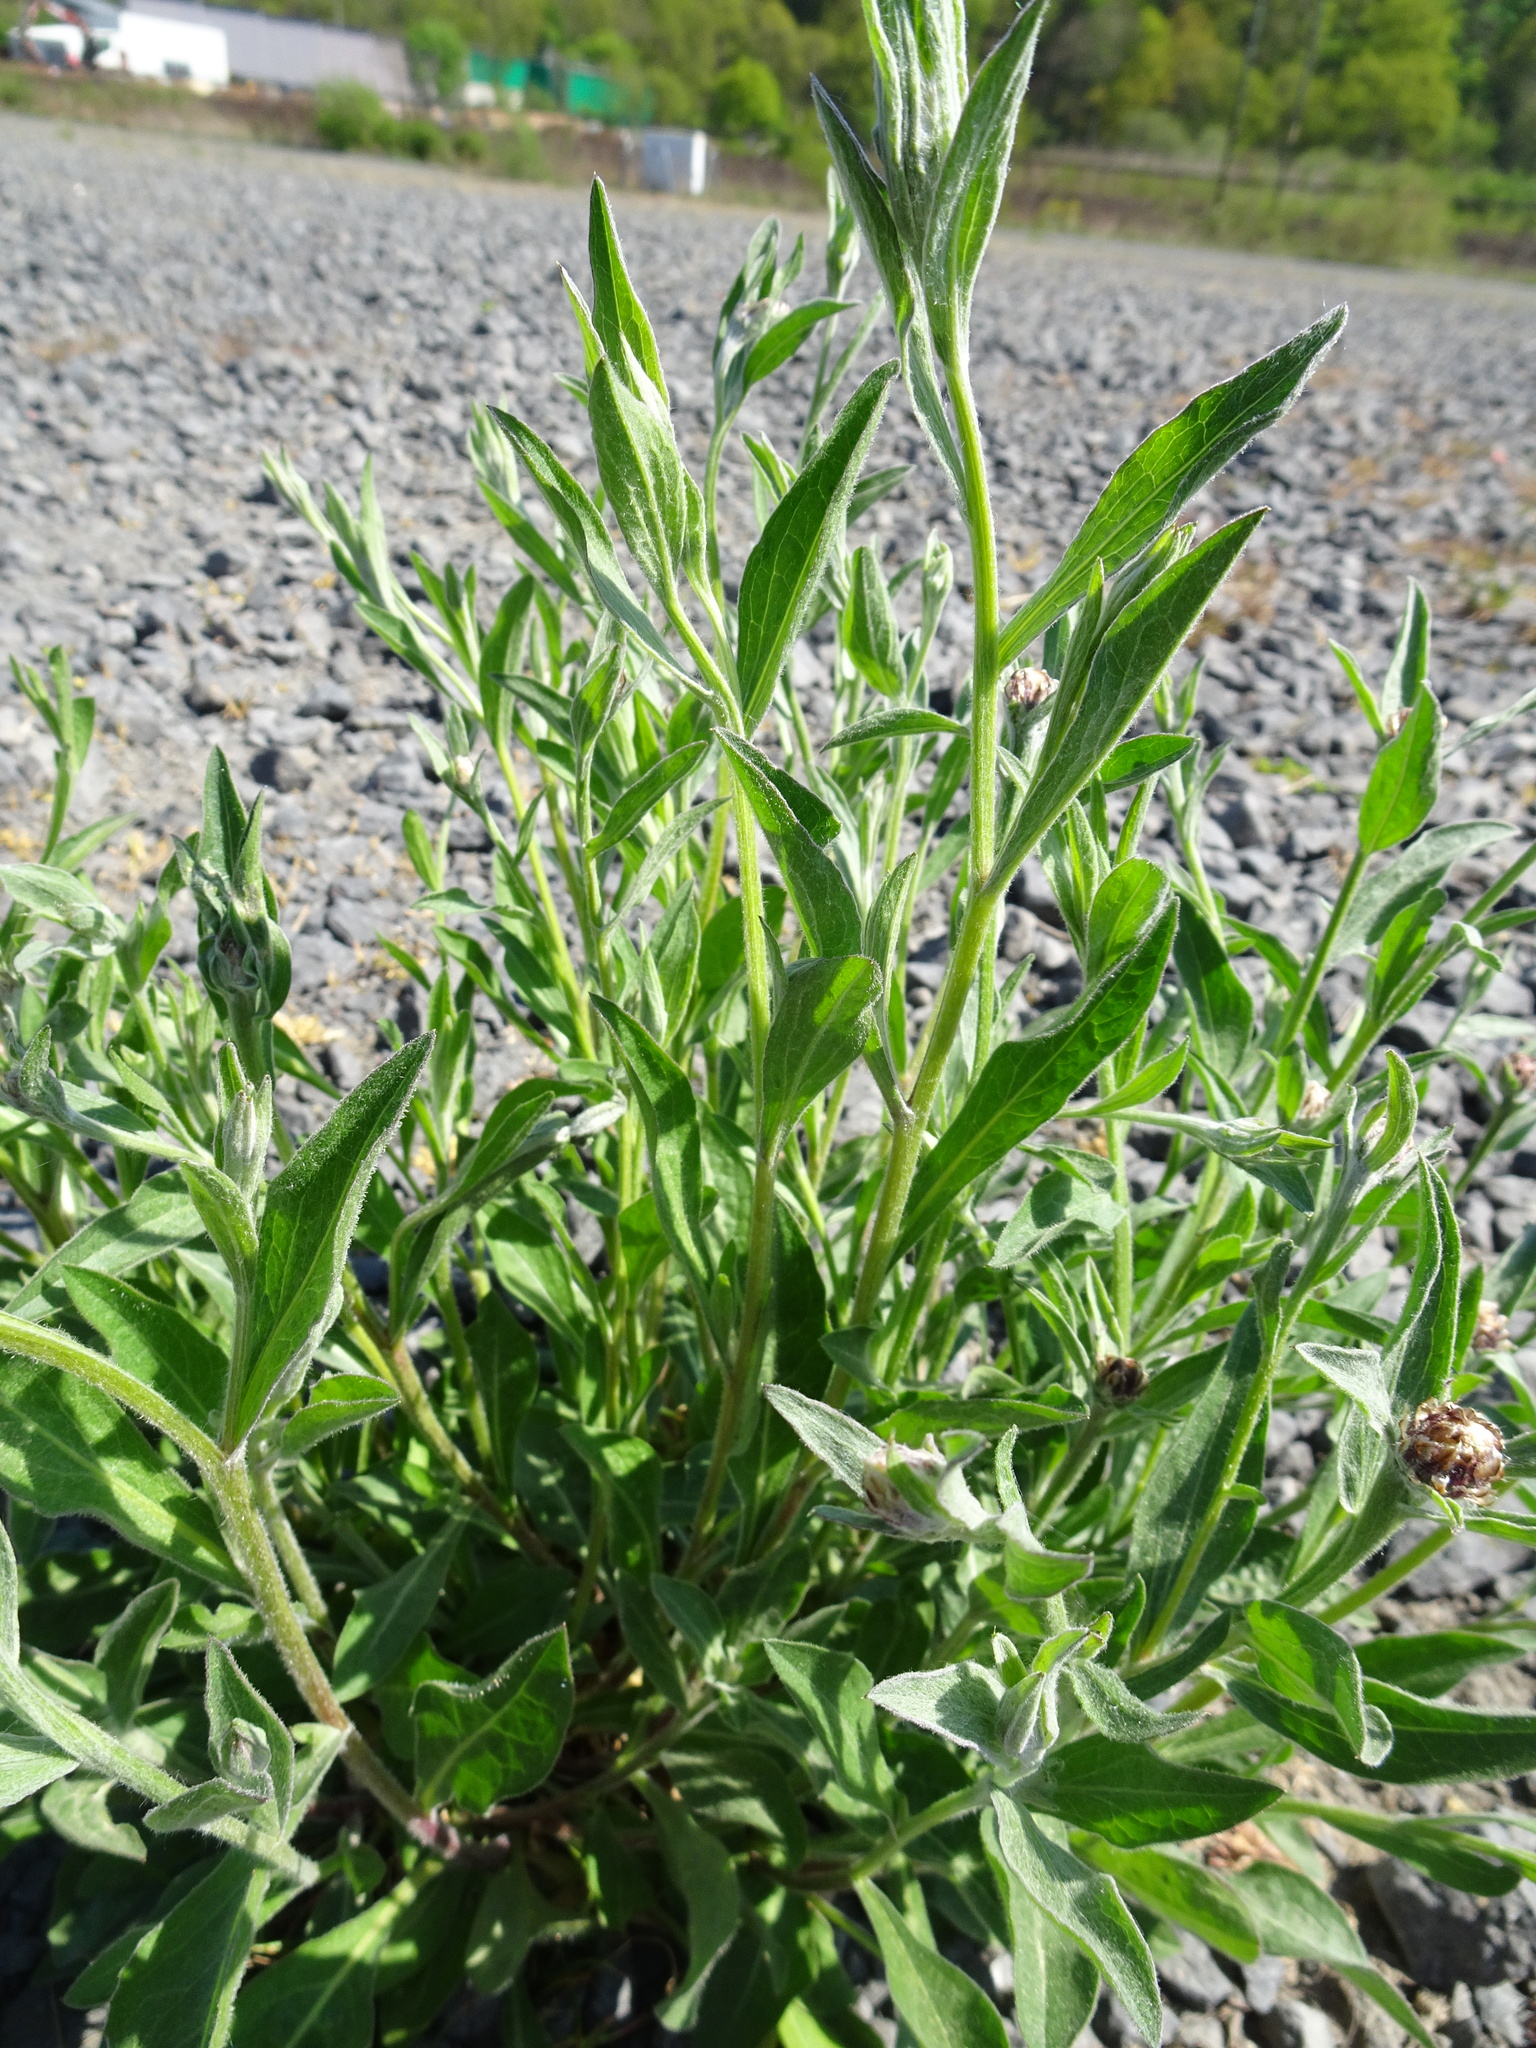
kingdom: Plantae
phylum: Tracheophyta
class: Magnoliopsida
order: Asterales
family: Asteraceae
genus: Centaurea
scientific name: Centaurea jacea
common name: Brown knapweed
